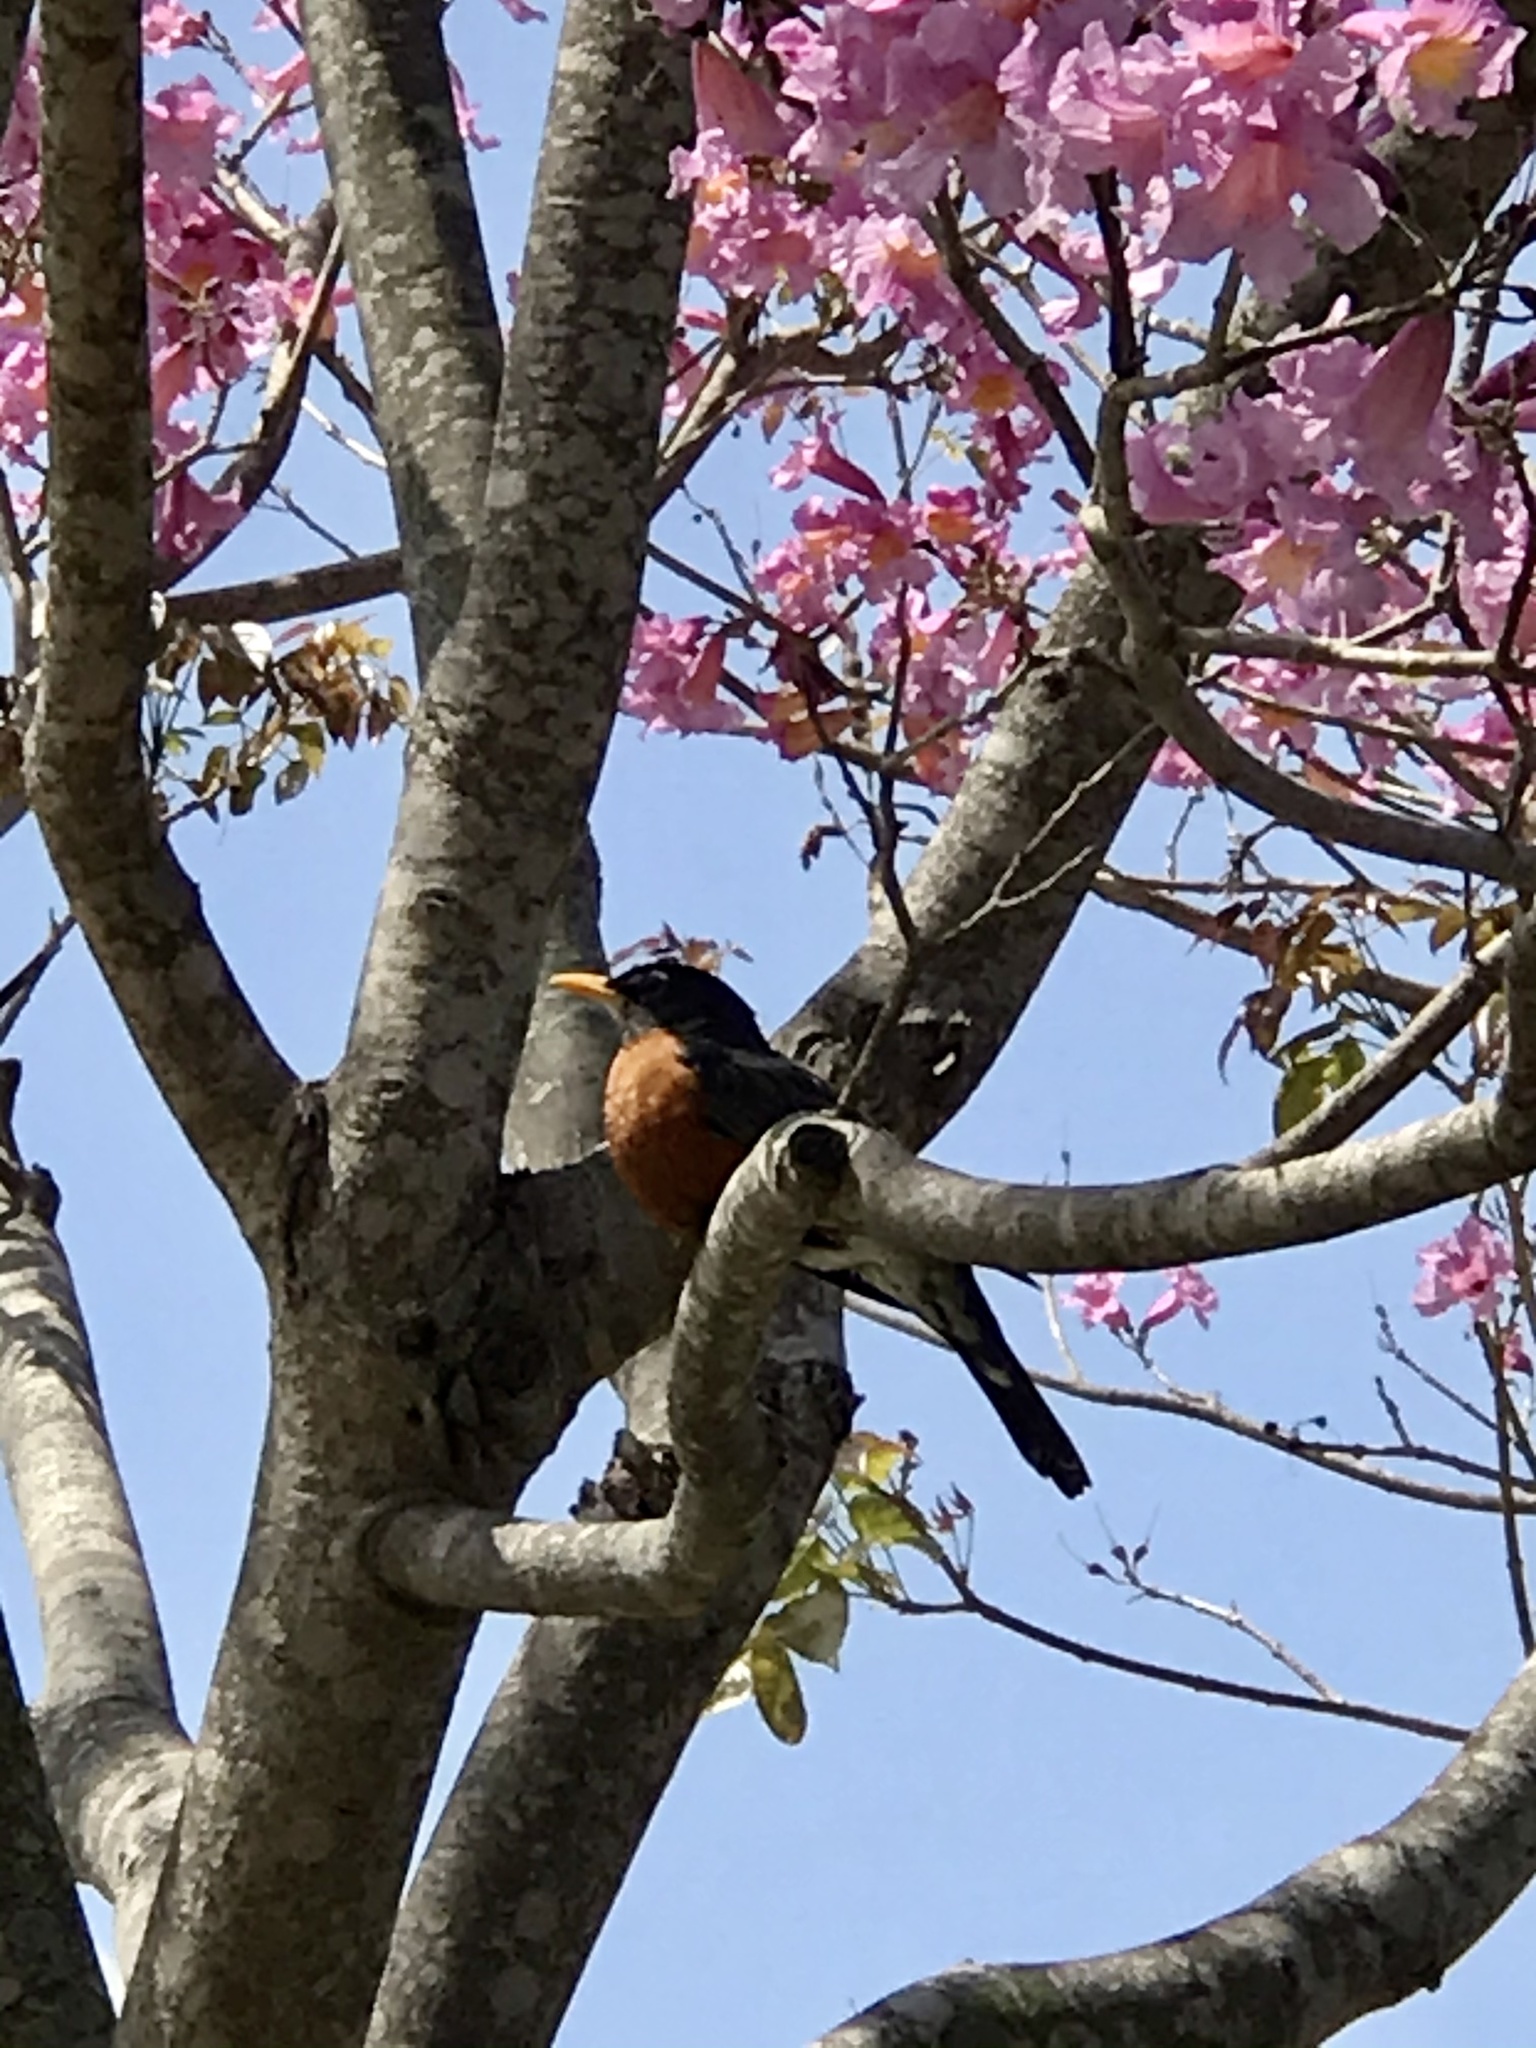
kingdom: Animalia
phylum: Chordata
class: Aves
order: Passeriformes
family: Turdidae
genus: Turdus
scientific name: Turdus migratorius
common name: American robin
